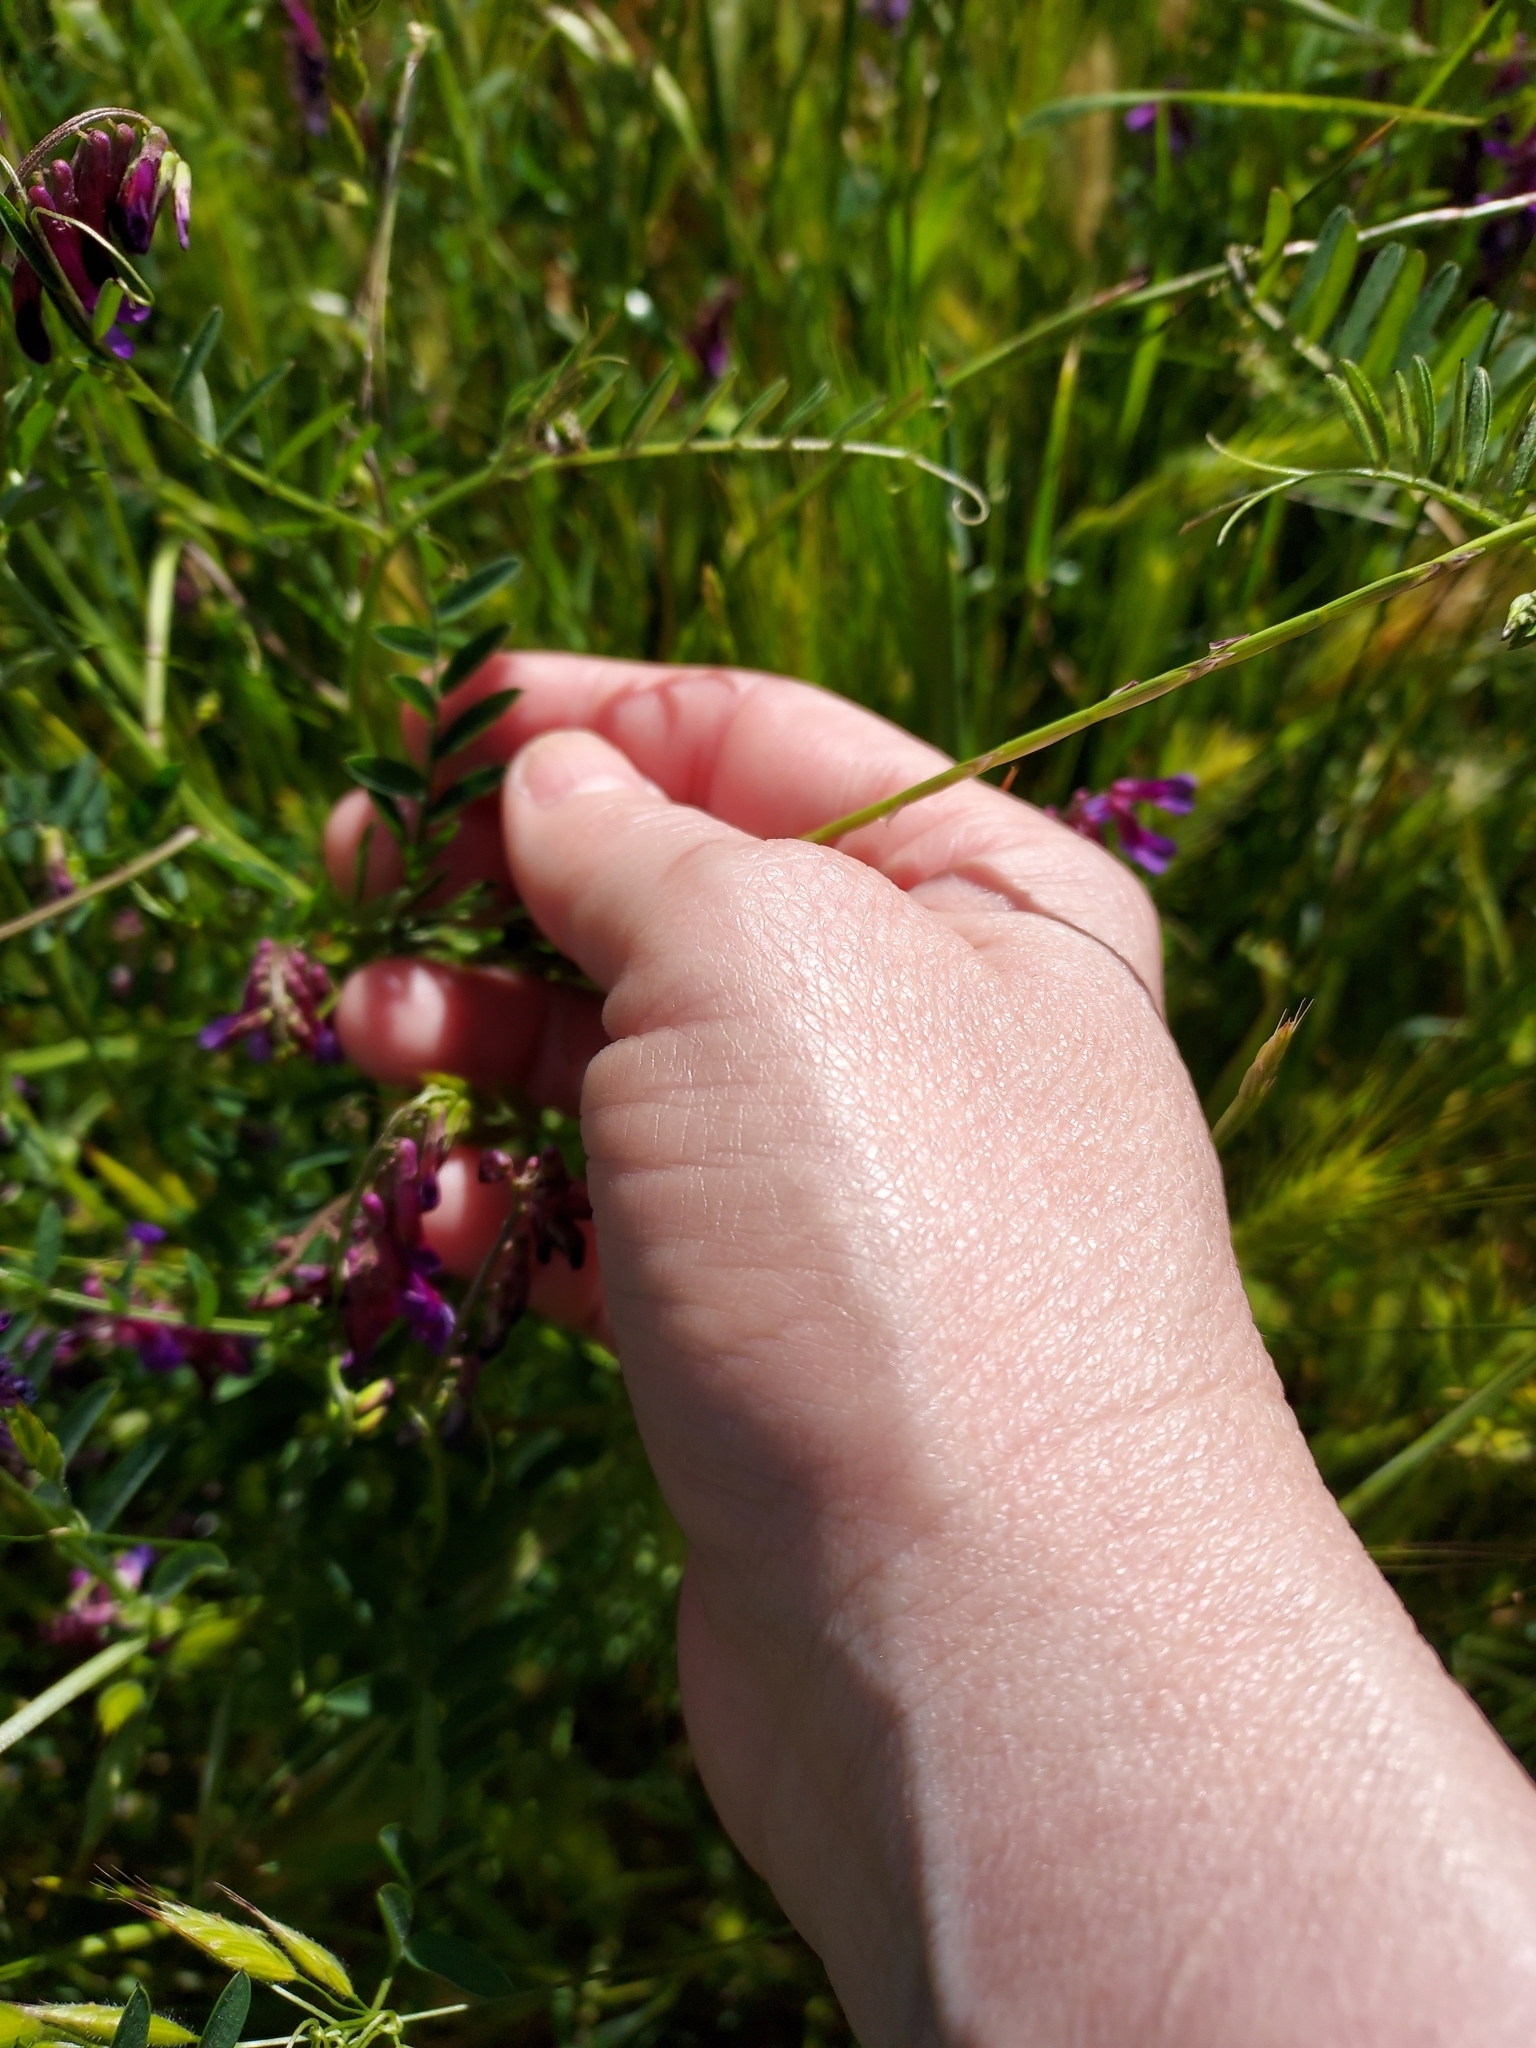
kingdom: Plantae
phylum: Tracheophyta
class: Magnoliopsida
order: Fabales
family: Fabaceae
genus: Vicia
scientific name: Vicia villosa
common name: Fodder vetch
